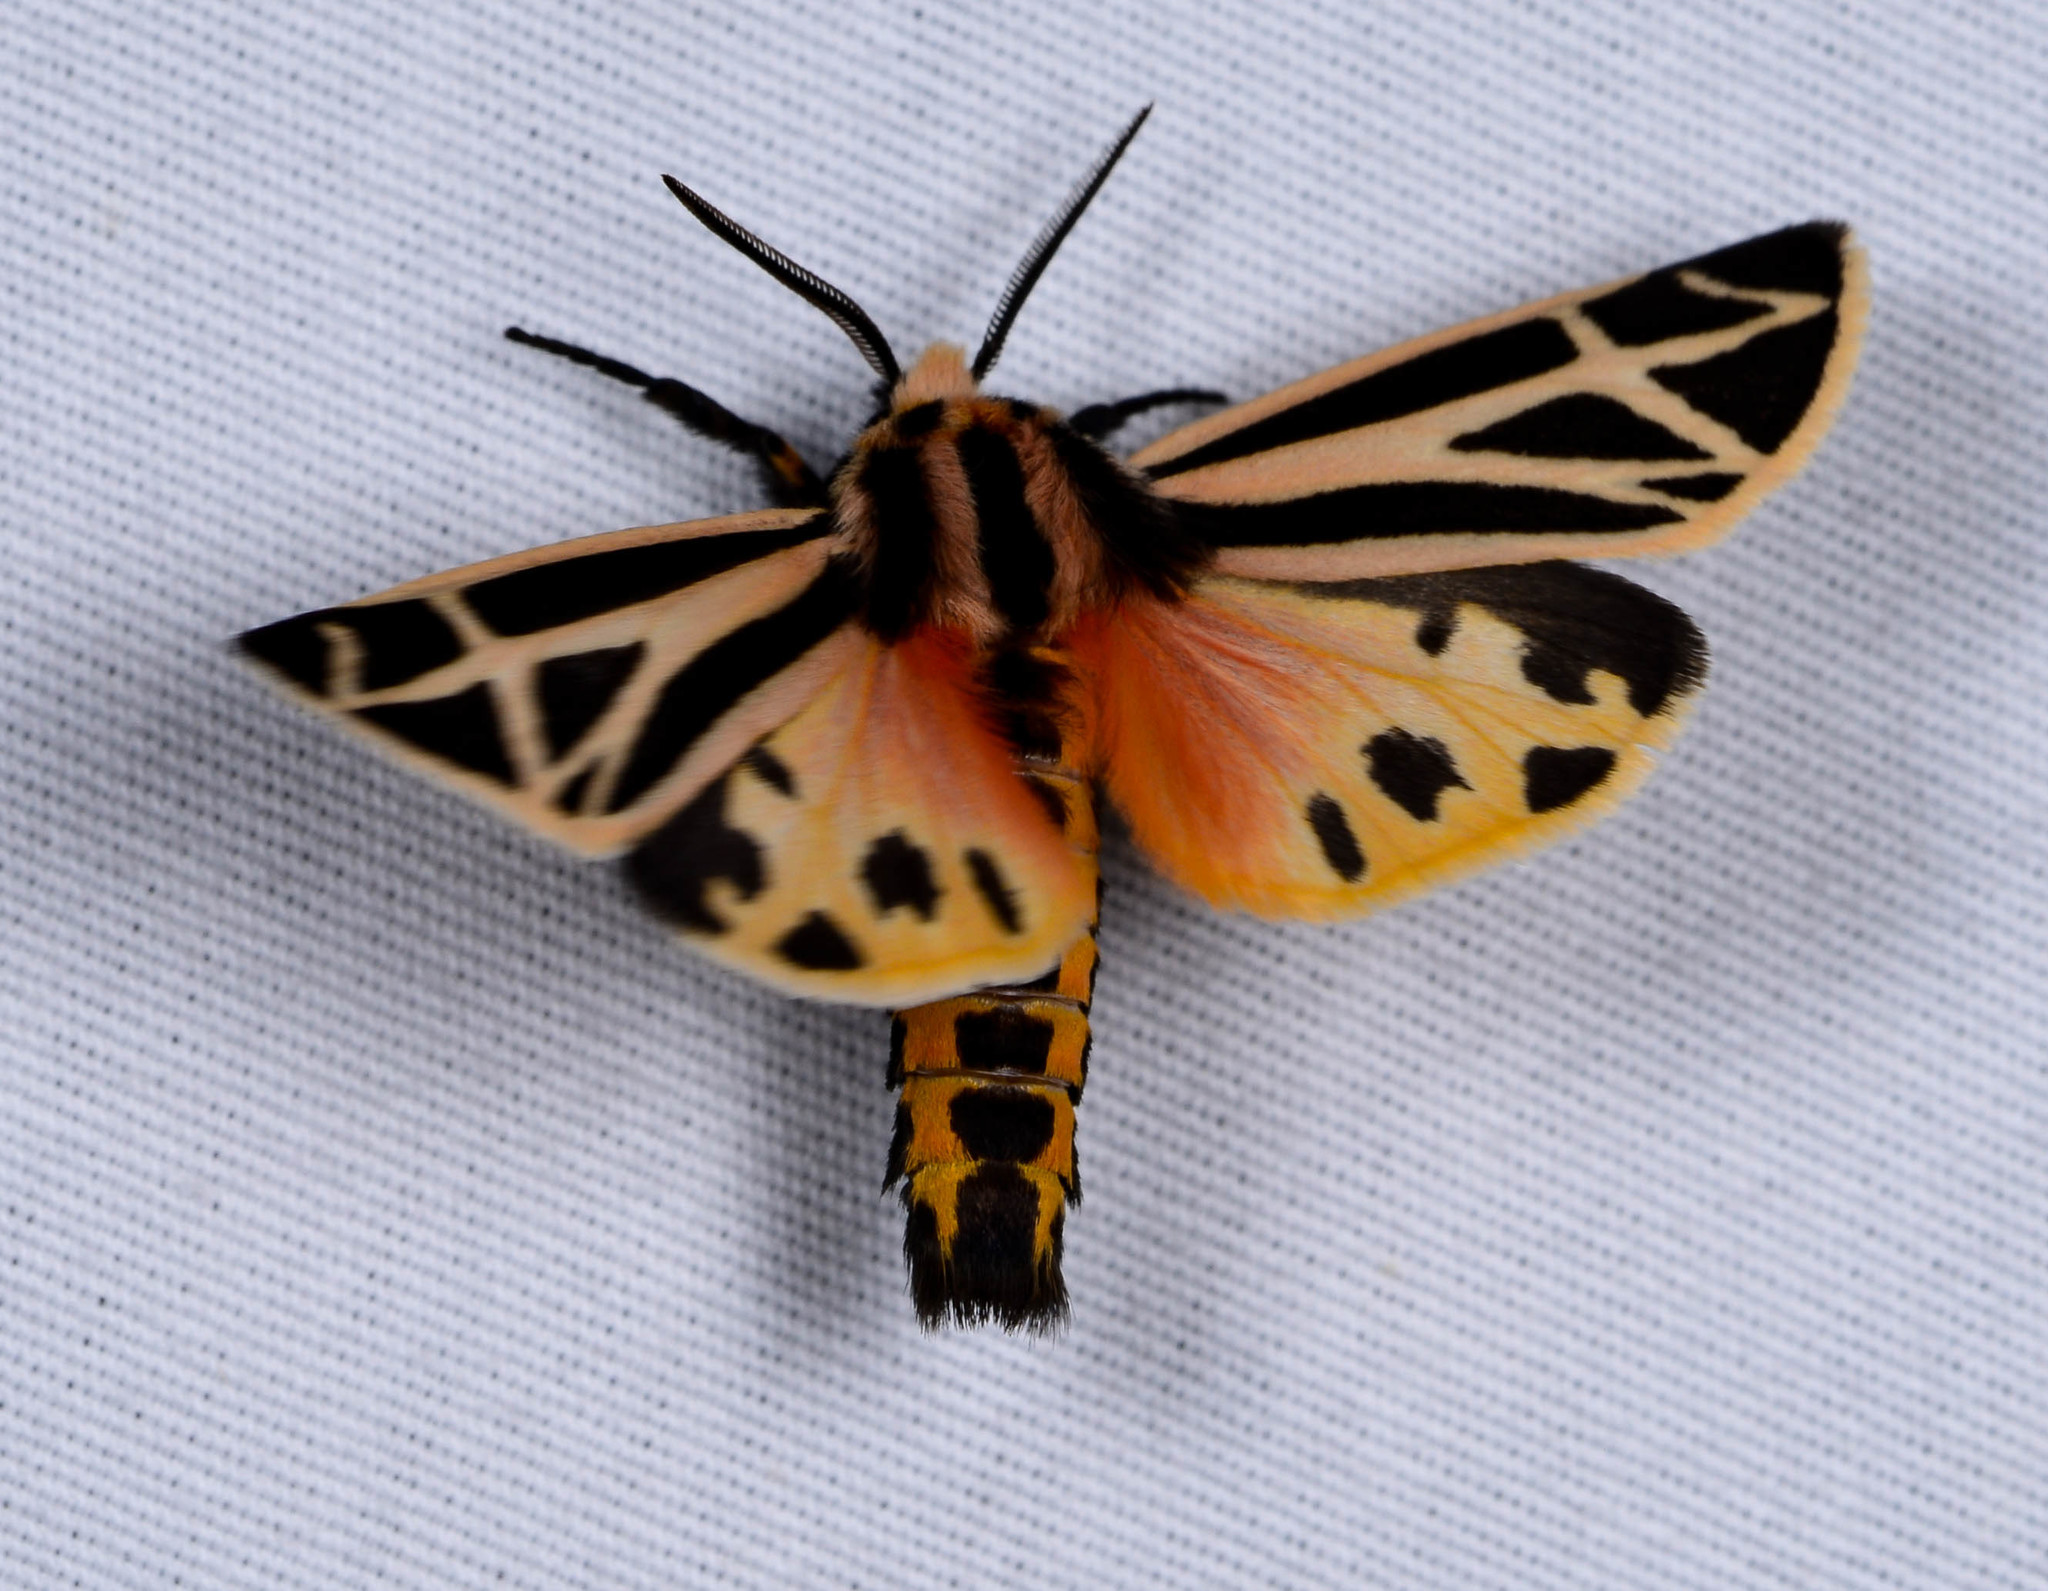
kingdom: Animalia
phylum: Arthropoda
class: Insecta
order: Lepidoptera
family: Erebidae
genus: Apantesis
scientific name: Apantesis phalerata
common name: Harnessed tiger moth
